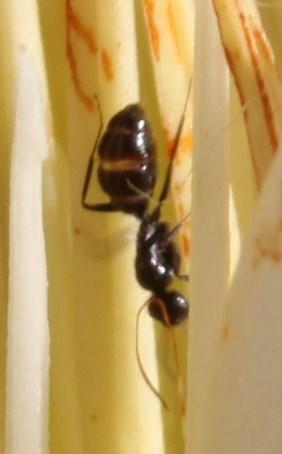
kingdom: Plantae
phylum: Tracheophyta
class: Magnoliopsida
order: Proteales
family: Proteaceae
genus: Protea
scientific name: Protea repens
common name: Sugarbush
